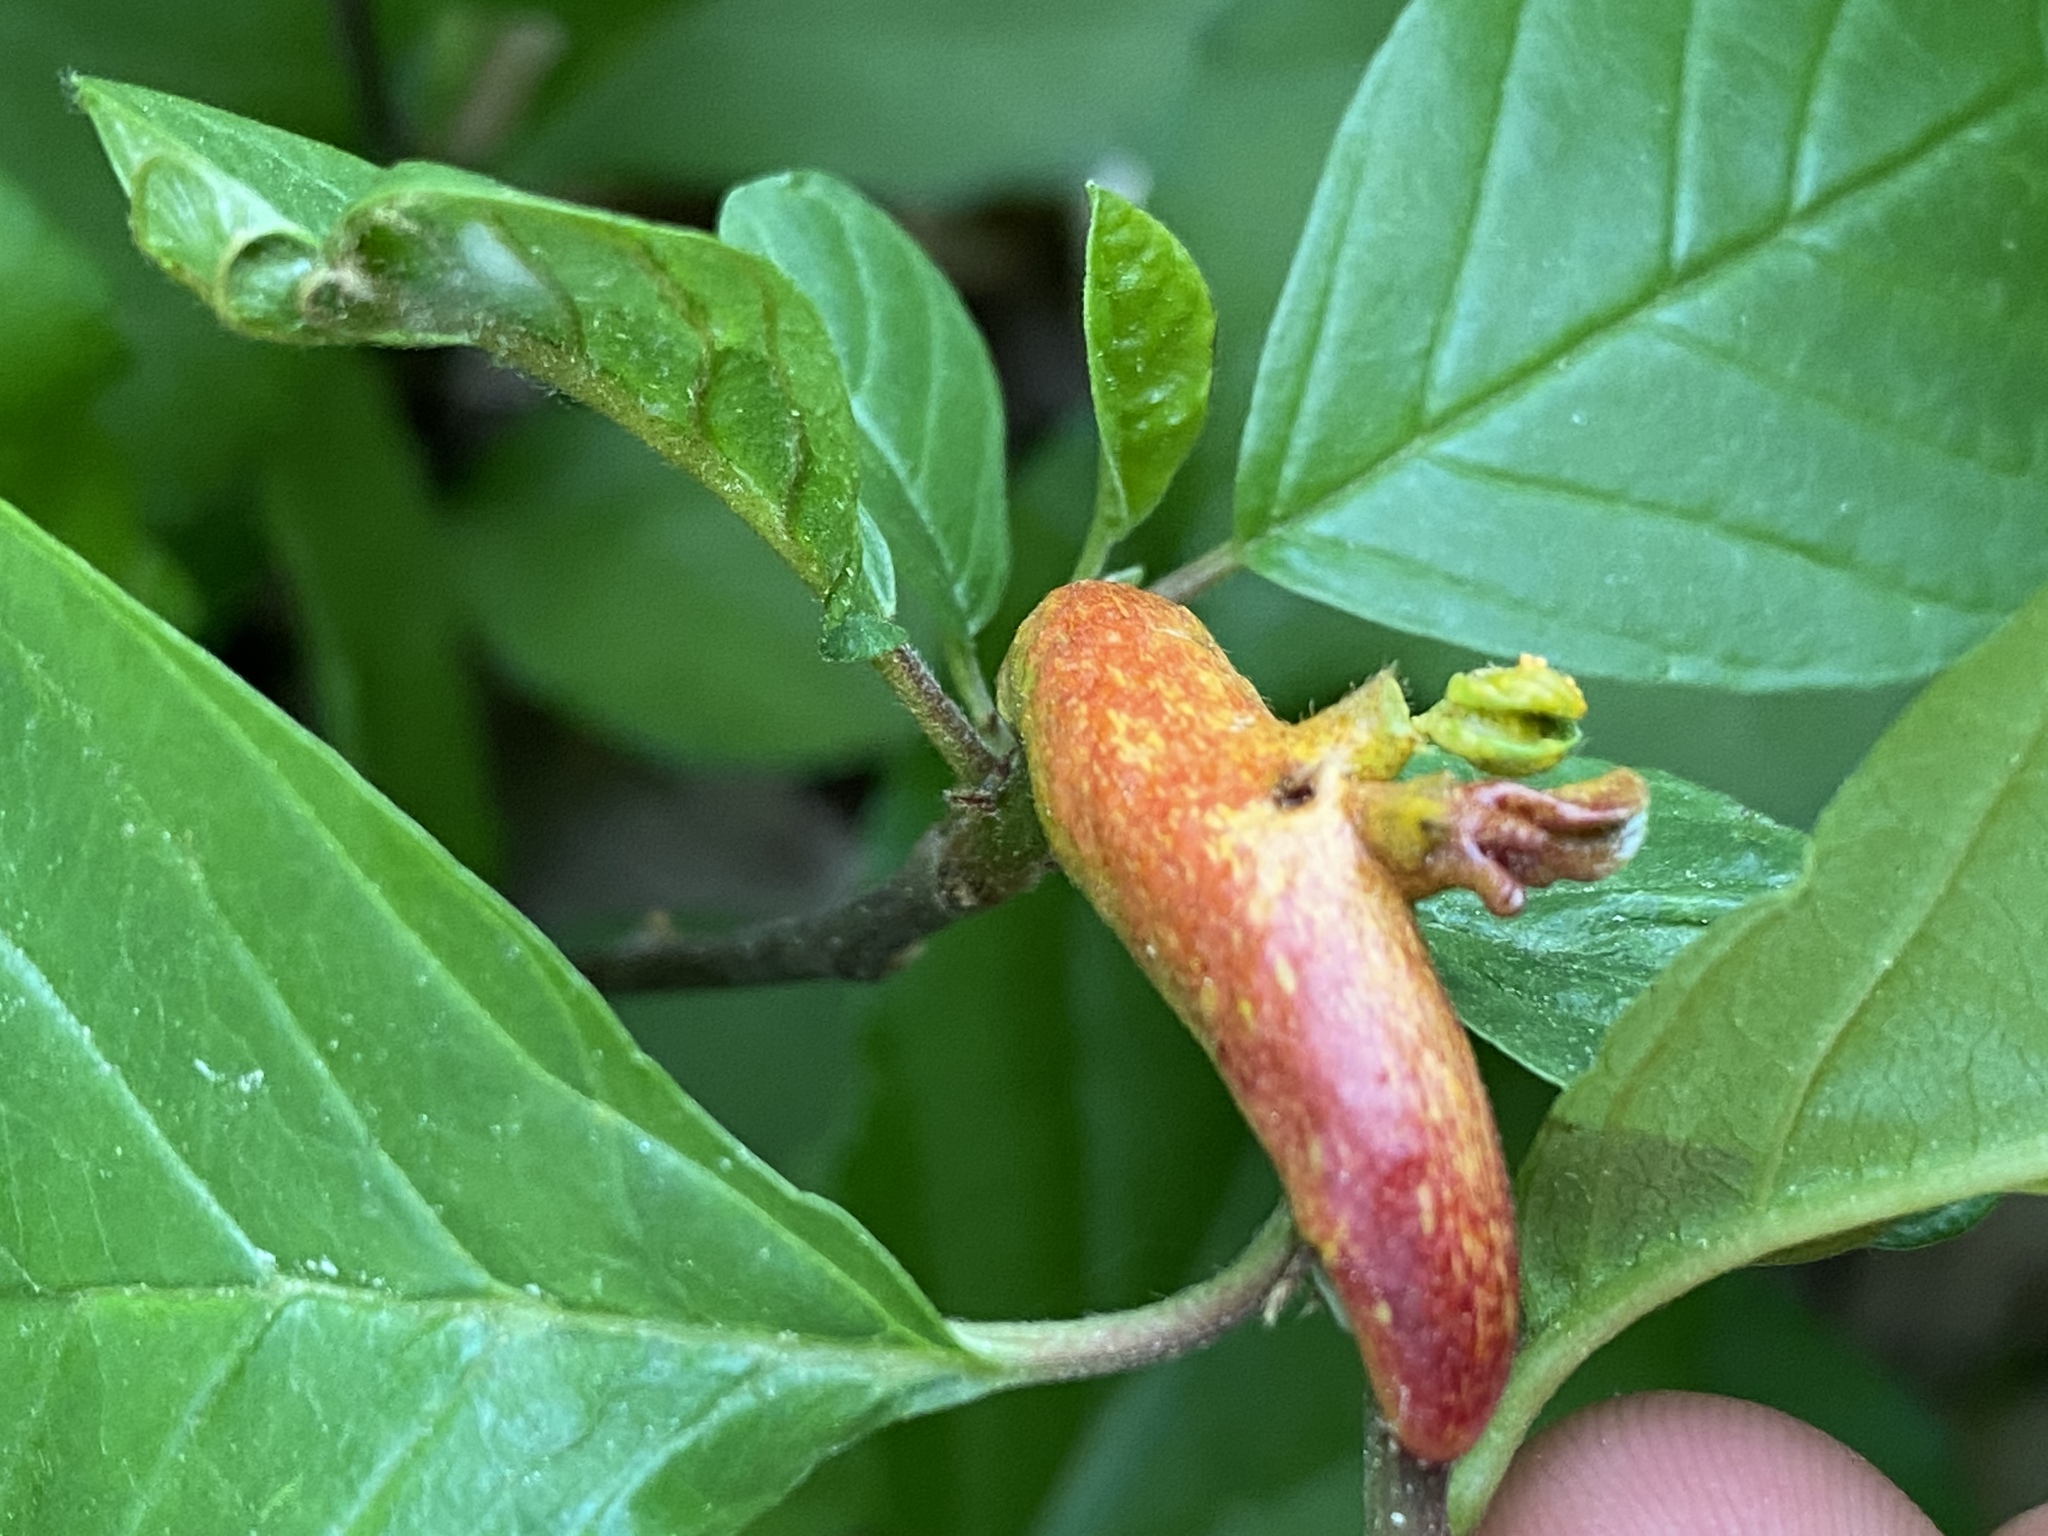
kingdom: Fungi
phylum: Basidiomycota
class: Pucciniomycetes
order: Pucciniales
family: Pucciniaceae
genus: Puccinia
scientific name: Puccinia coronata
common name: Crown rust
